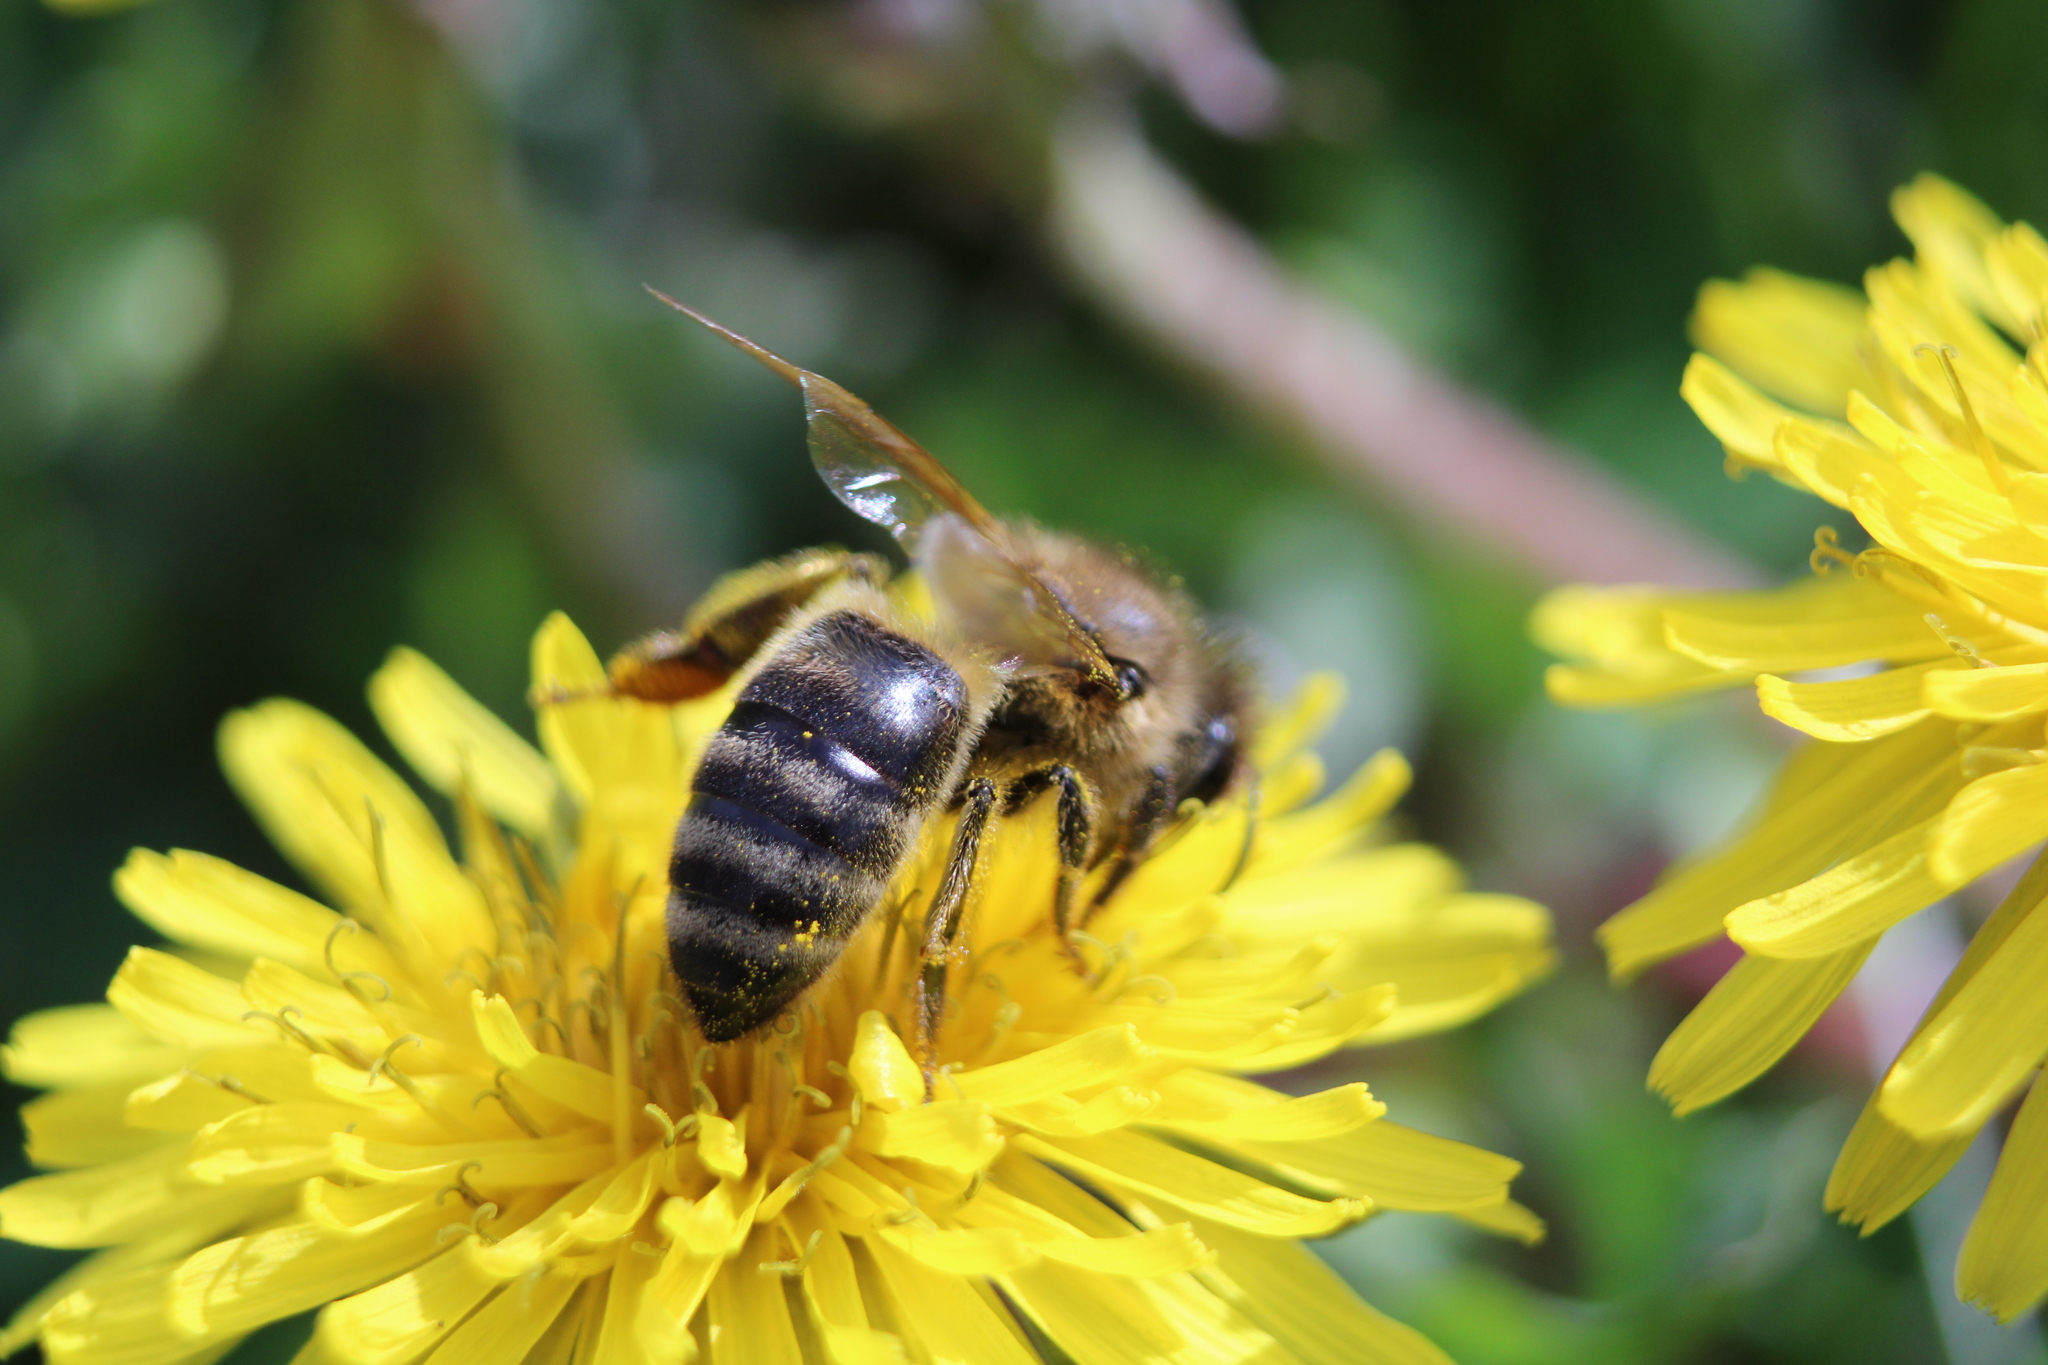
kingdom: Animalia
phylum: Arthropoda
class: Insecta
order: Hymenoptera
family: Apidae
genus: Apis
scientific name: Apis mellifera
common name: Honey bee
